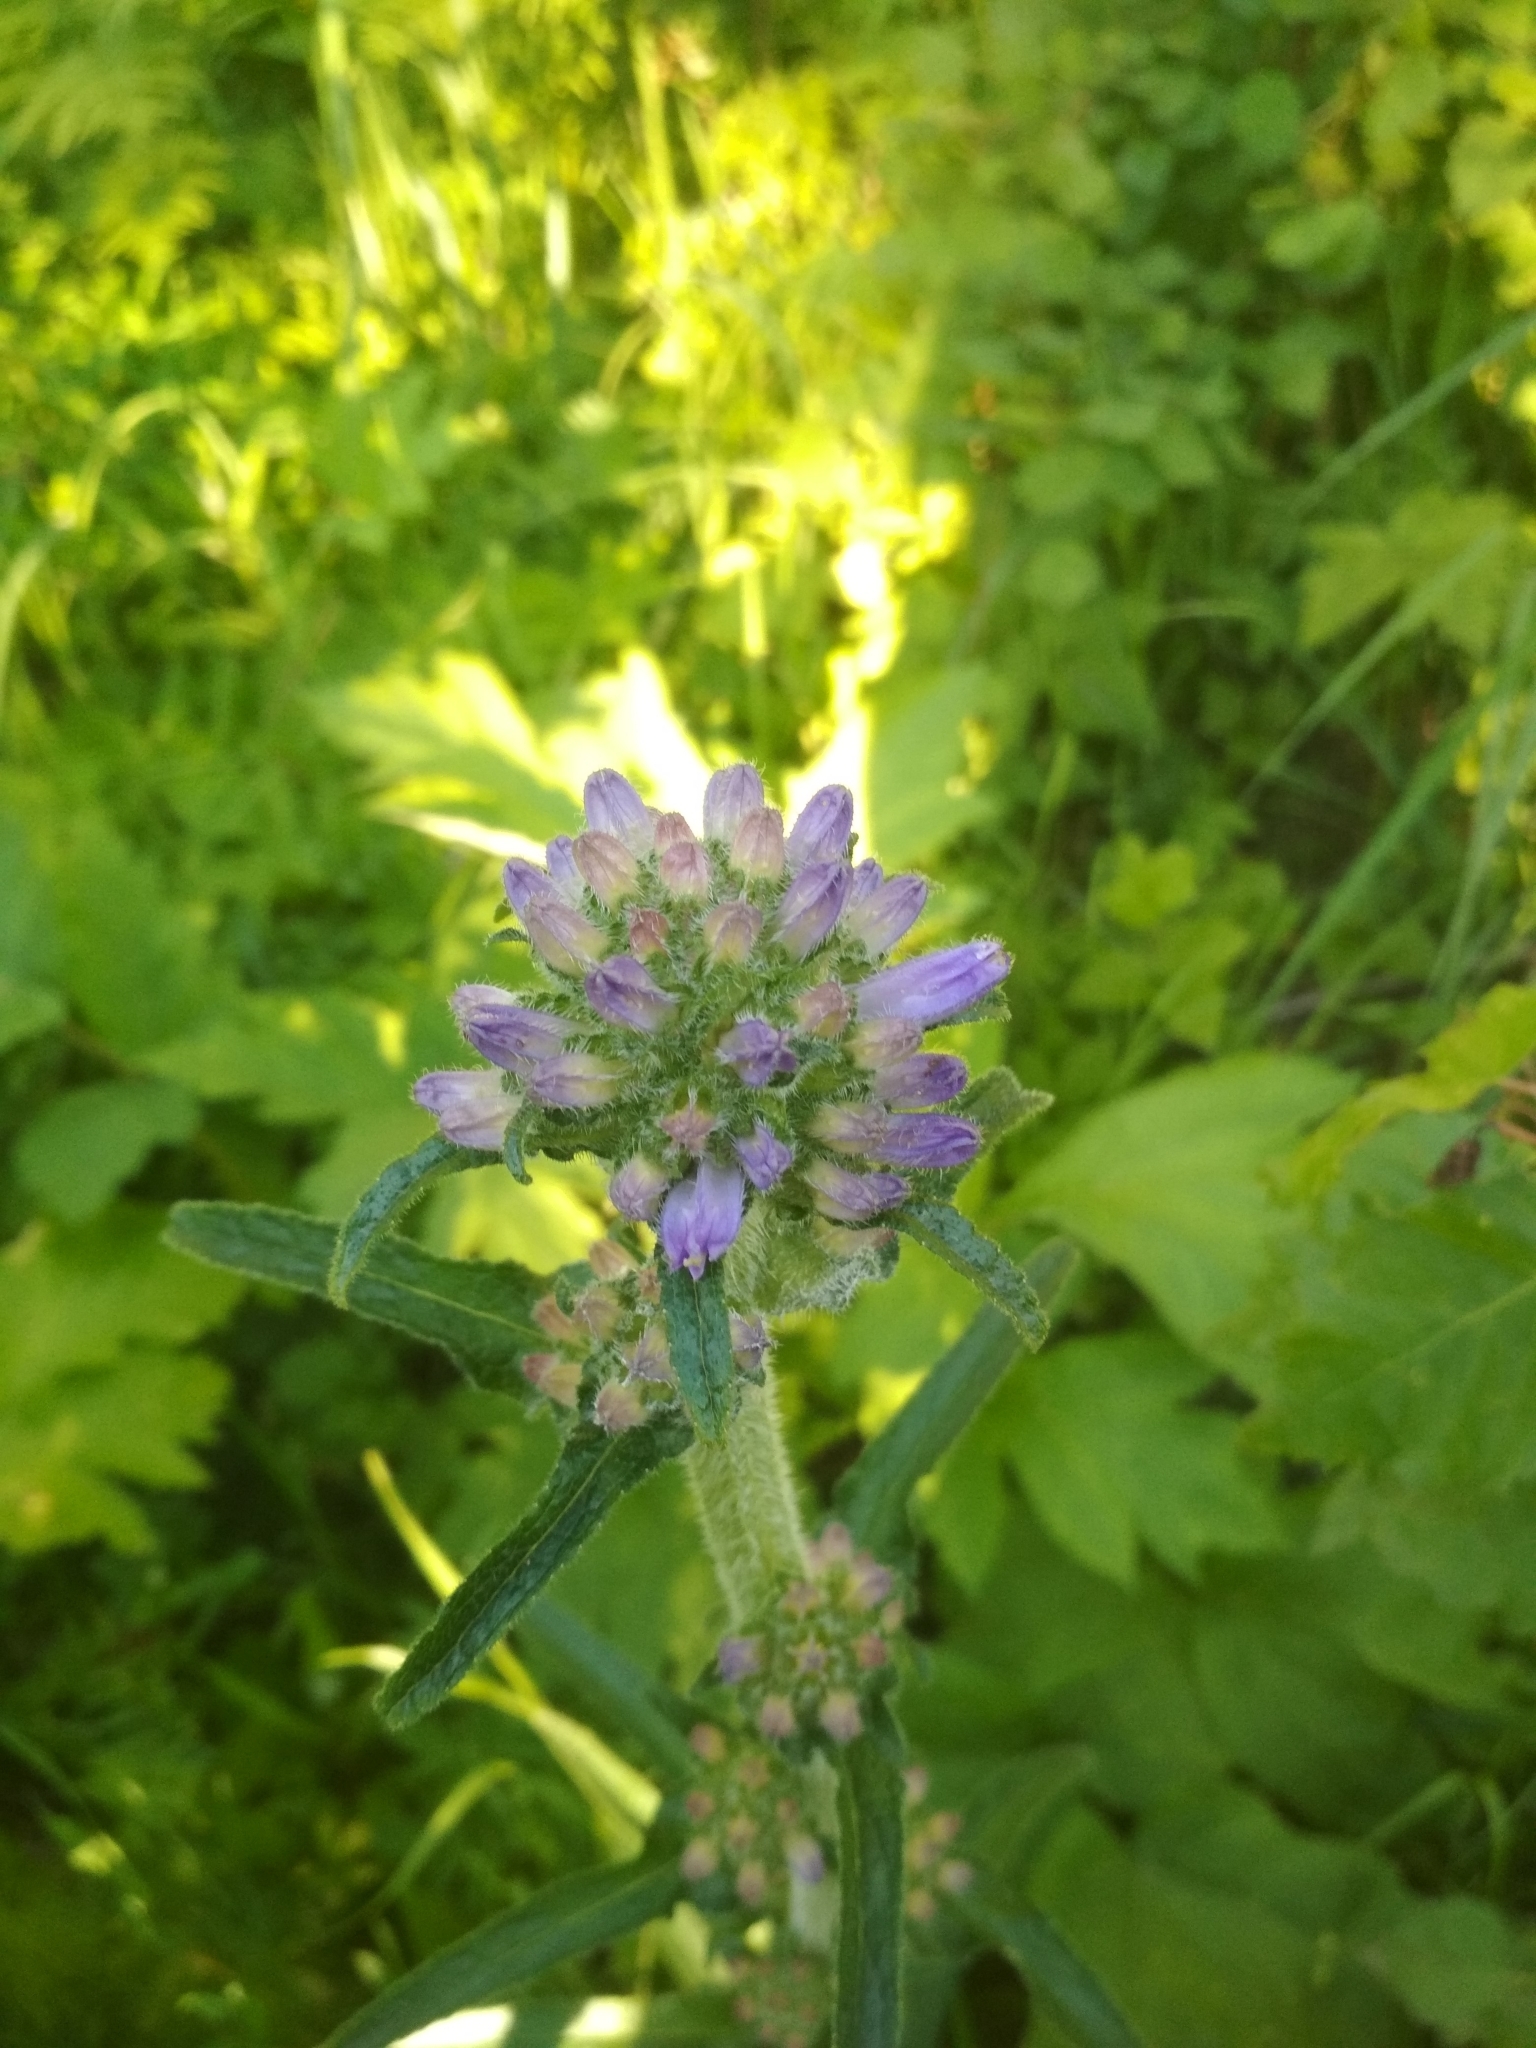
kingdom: Plantae
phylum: Tracheophyta
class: Magnoliopsida
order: Asterales
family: Campanulaceae
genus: Campanula
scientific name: Campanula cervicaria
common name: Bristly bellflower
